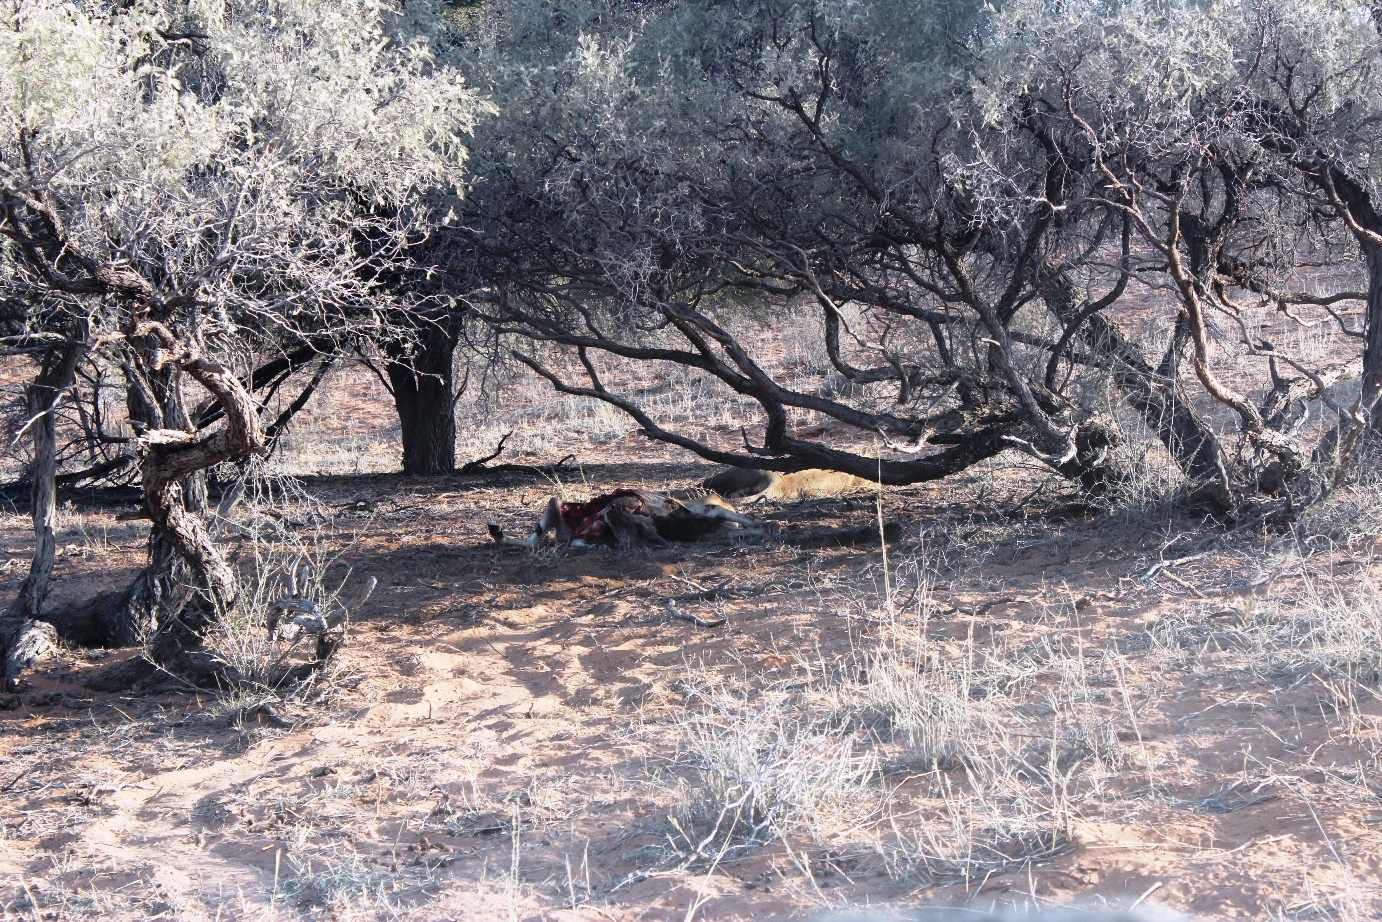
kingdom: Animalia
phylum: Chordata
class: Mammalia
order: Carnivora
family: Felidae
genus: Panthera
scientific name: Panthera leo
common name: Lion
